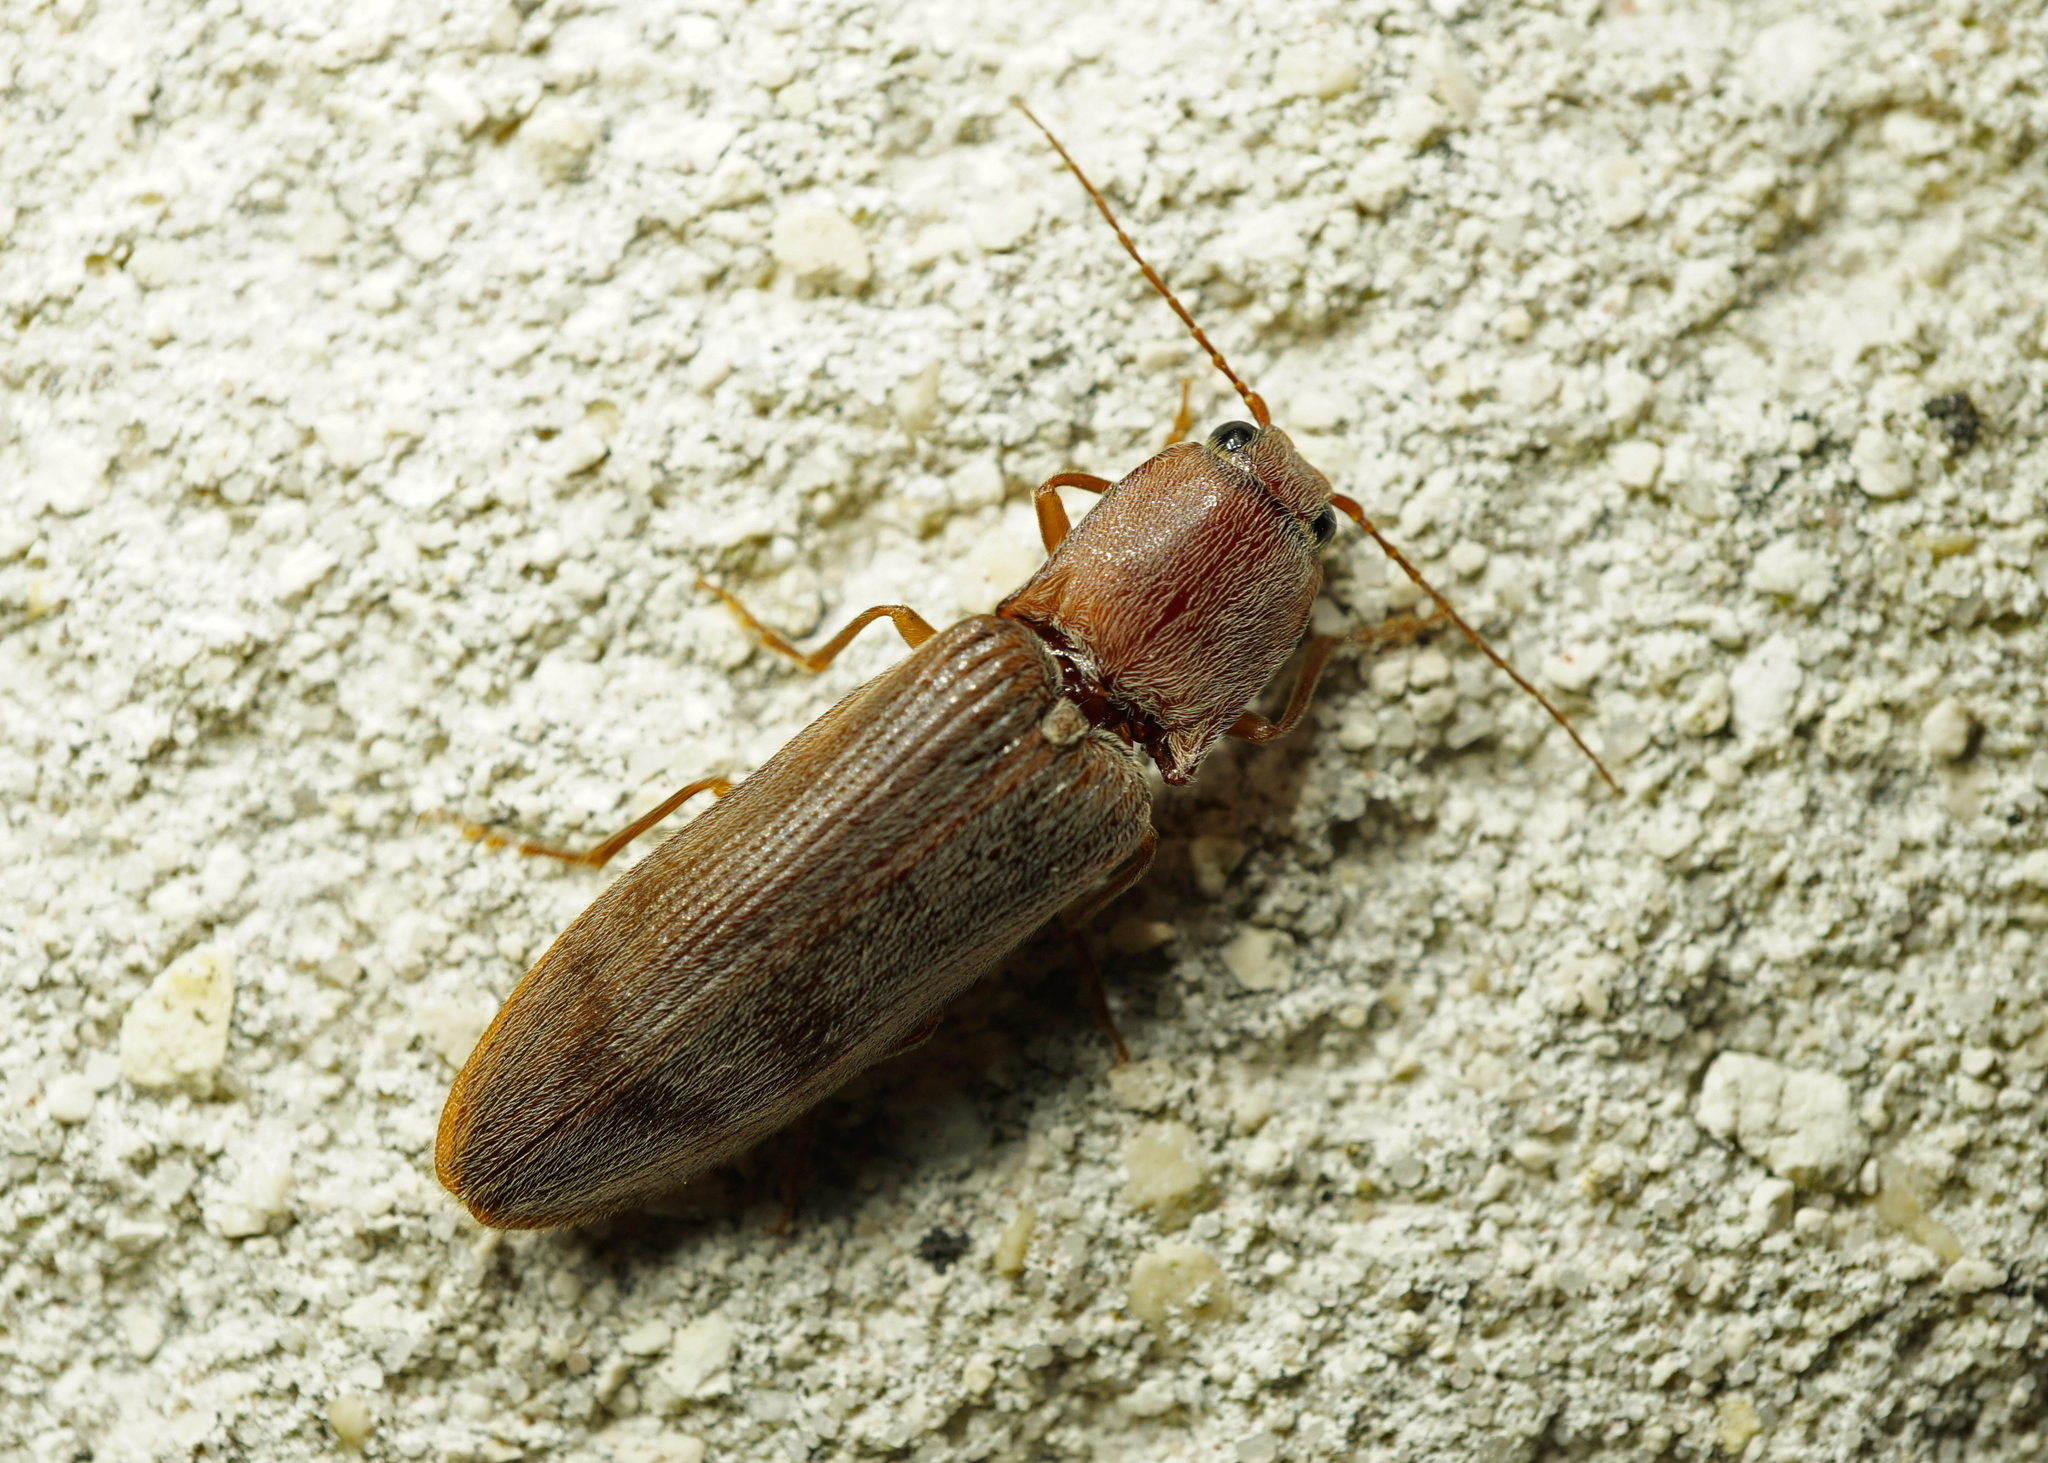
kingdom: Animalia
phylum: Arthropoda
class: Insecta
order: Coleoptera
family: Elateridae
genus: Stenagostus
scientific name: Stenagostus rhombeus
